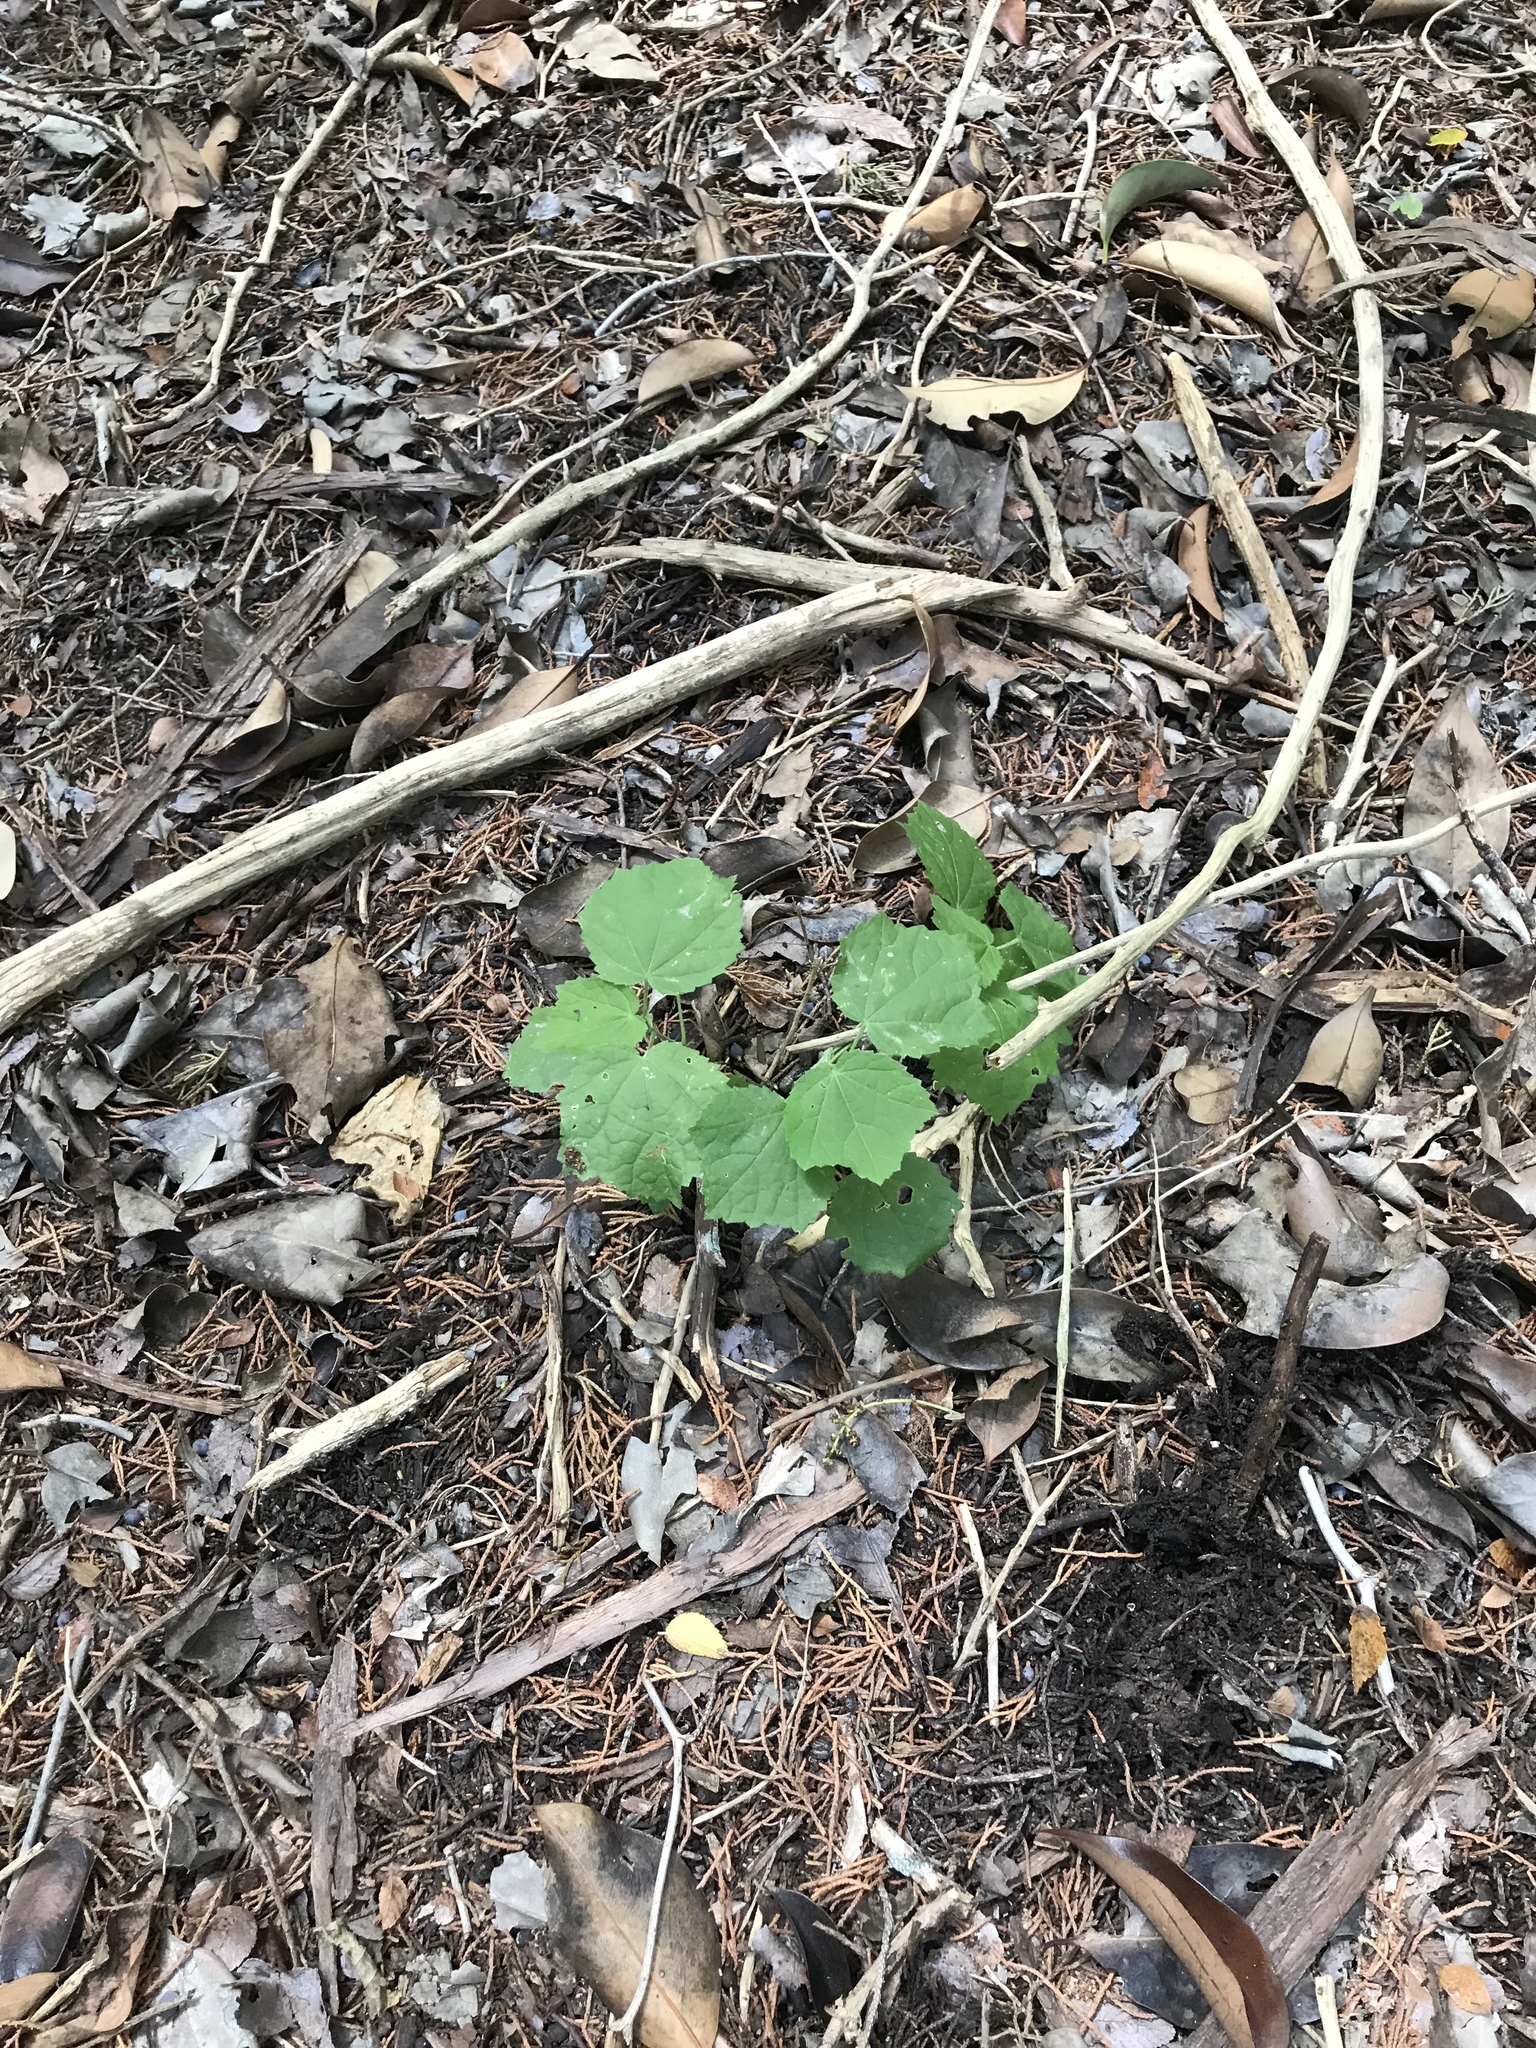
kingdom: Plantae
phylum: Tracheophyta
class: Magnoliopsida
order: Malvales
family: Malvaceae
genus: Malvaviscus
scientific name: Malvaviscus arboreus
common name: Wax mallow
